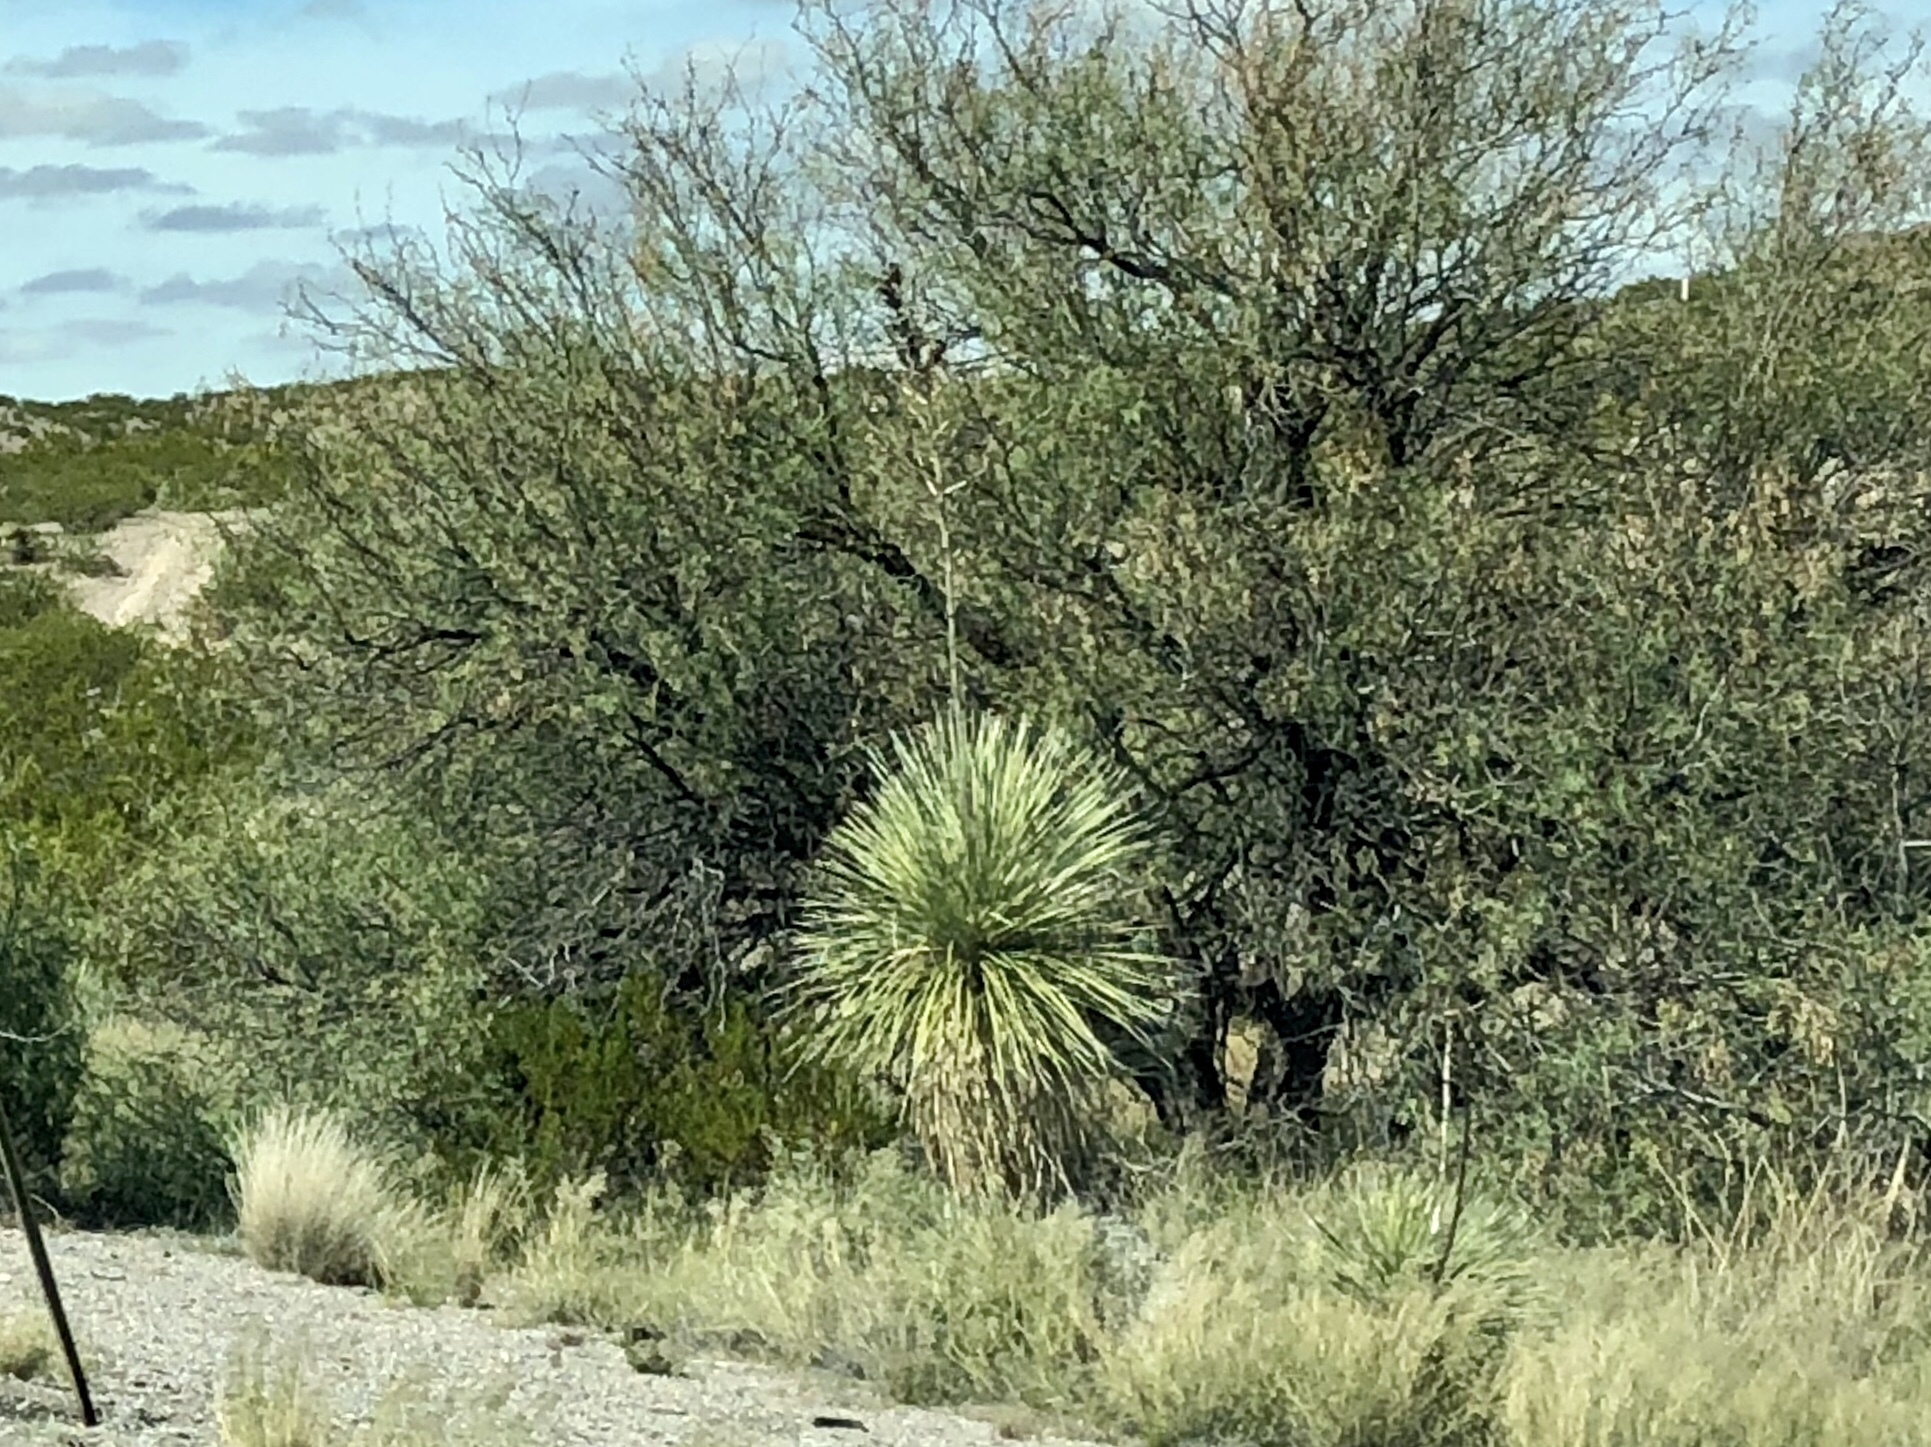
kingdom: Plantae
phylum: Tracheophyta
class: Liliopsida
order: Asparagales
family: Asparagaceae
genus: Yucca
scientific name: Yucca elata
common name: Palmella
